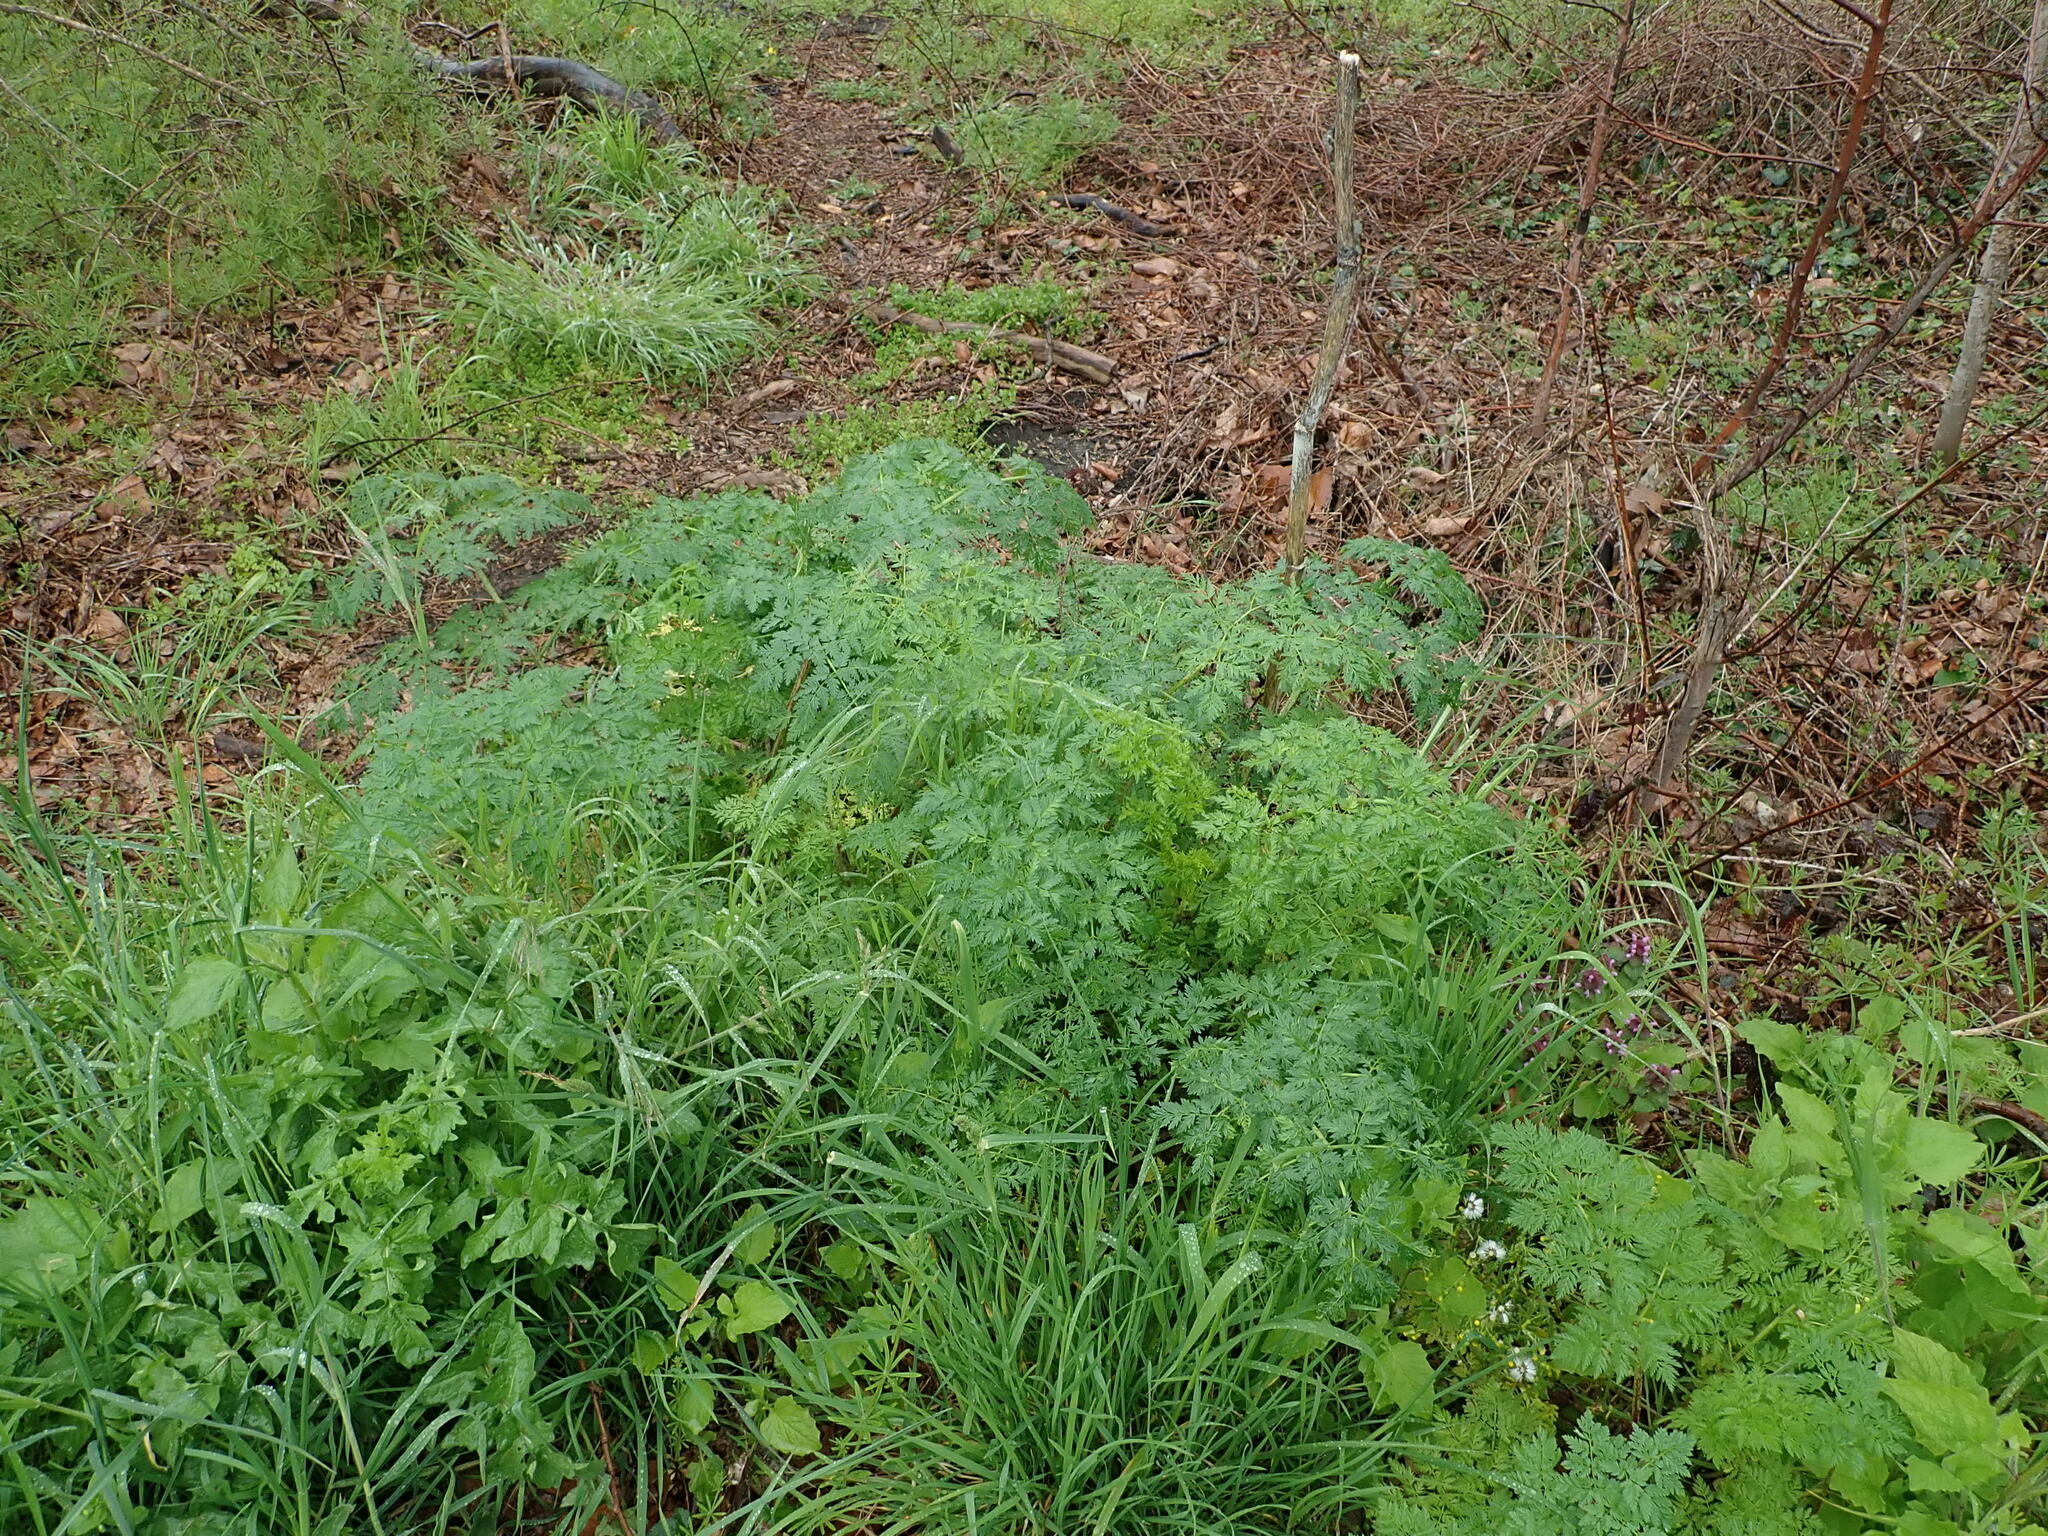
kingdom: Plantae
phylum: Tracheophyta
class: Magnoliopsida
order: Apiales
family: Apiaceae
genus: Conium
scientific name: Conium maculatum
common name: Hemlock
